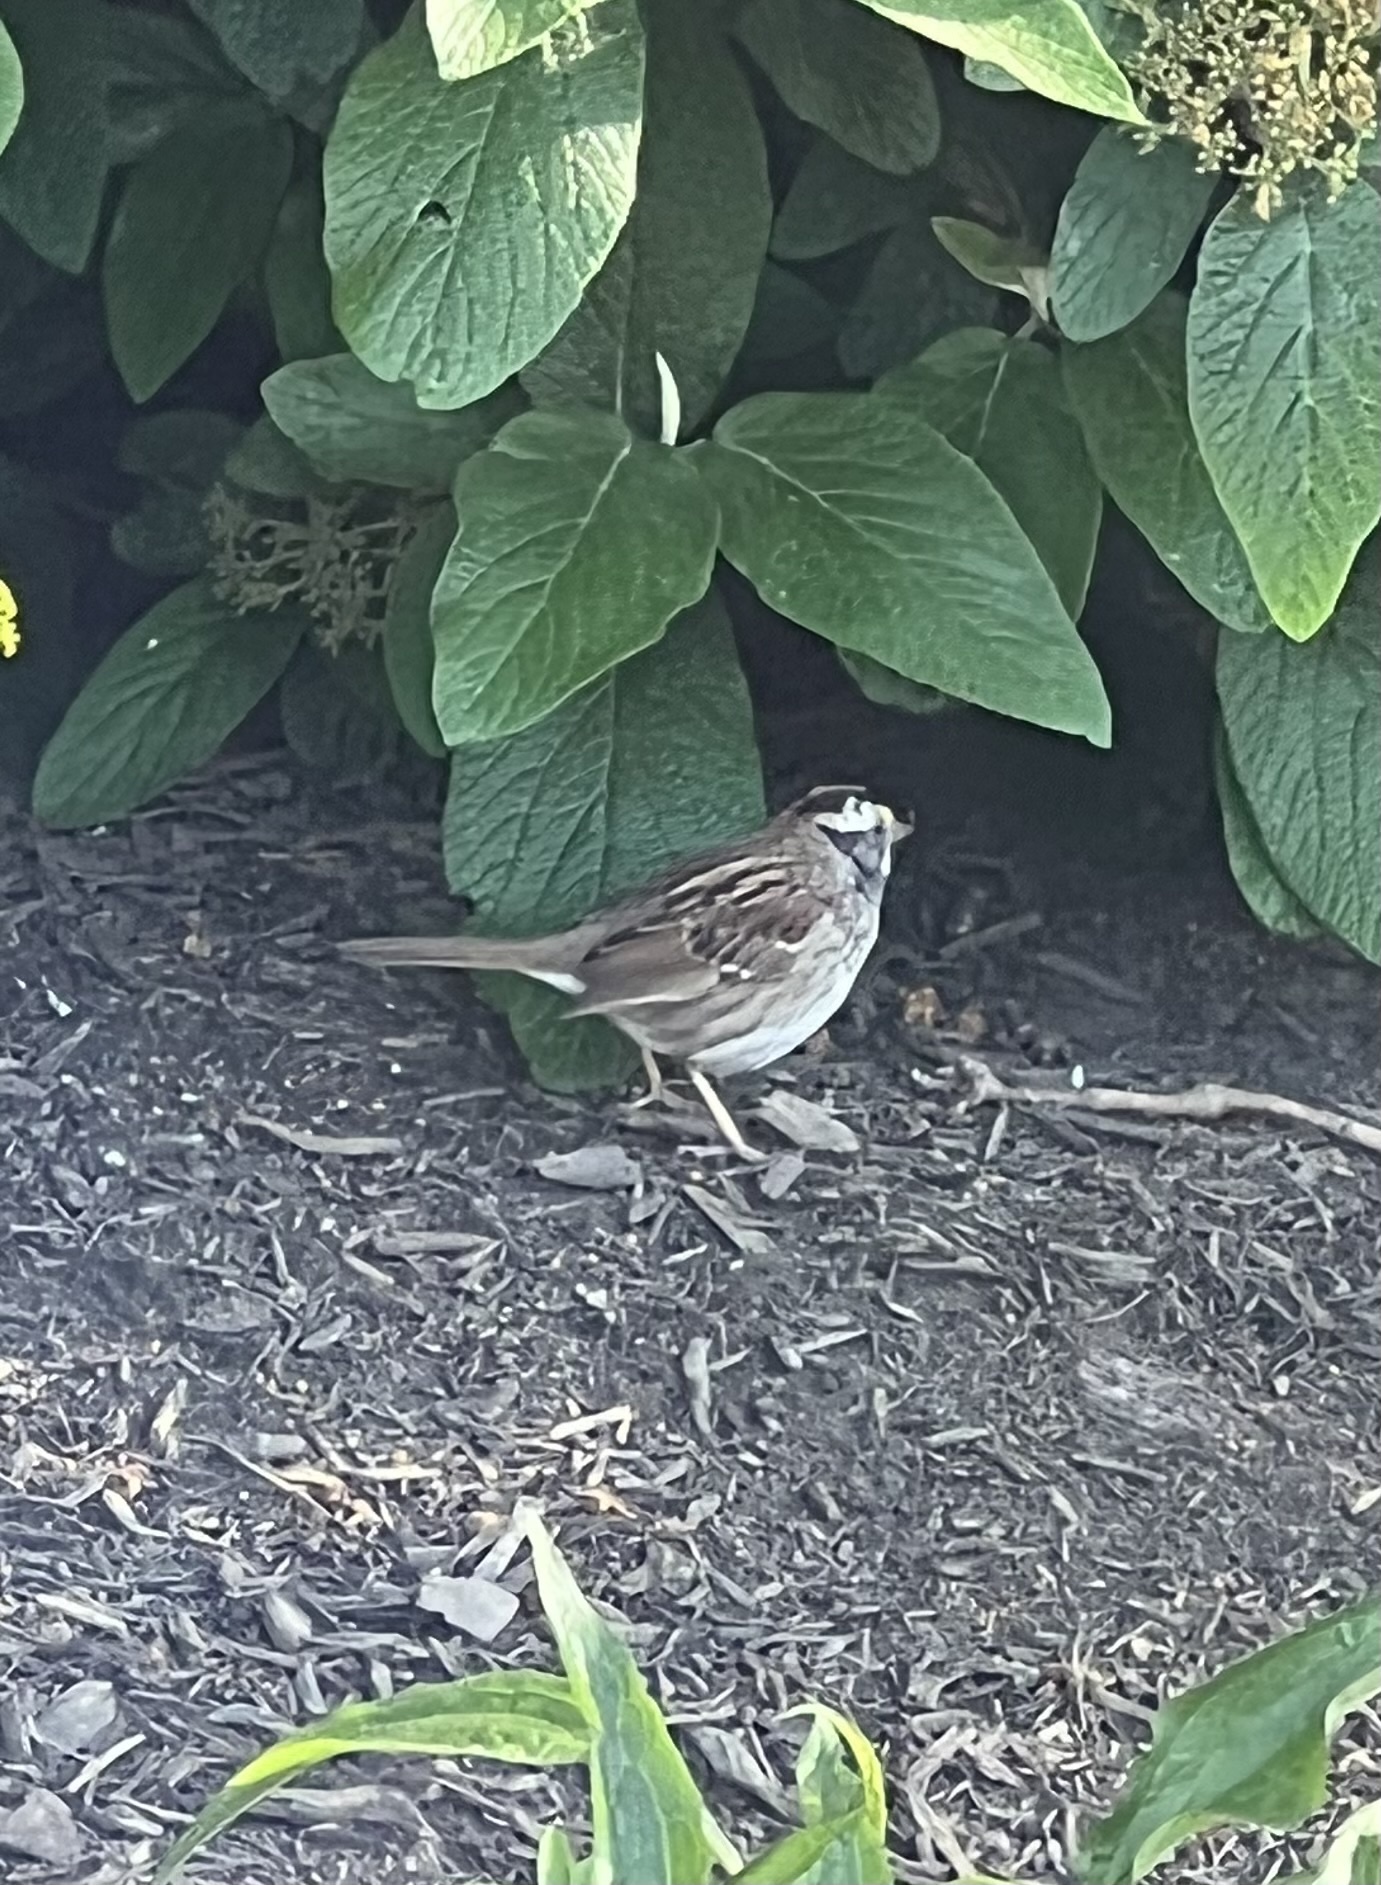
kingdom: Animalia
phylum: Chordata
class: Aves
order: Passeriformes
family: Passerellidae
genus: Zonotrichia
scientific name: Zonotrichia albicollis
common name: White-throated sparrow
